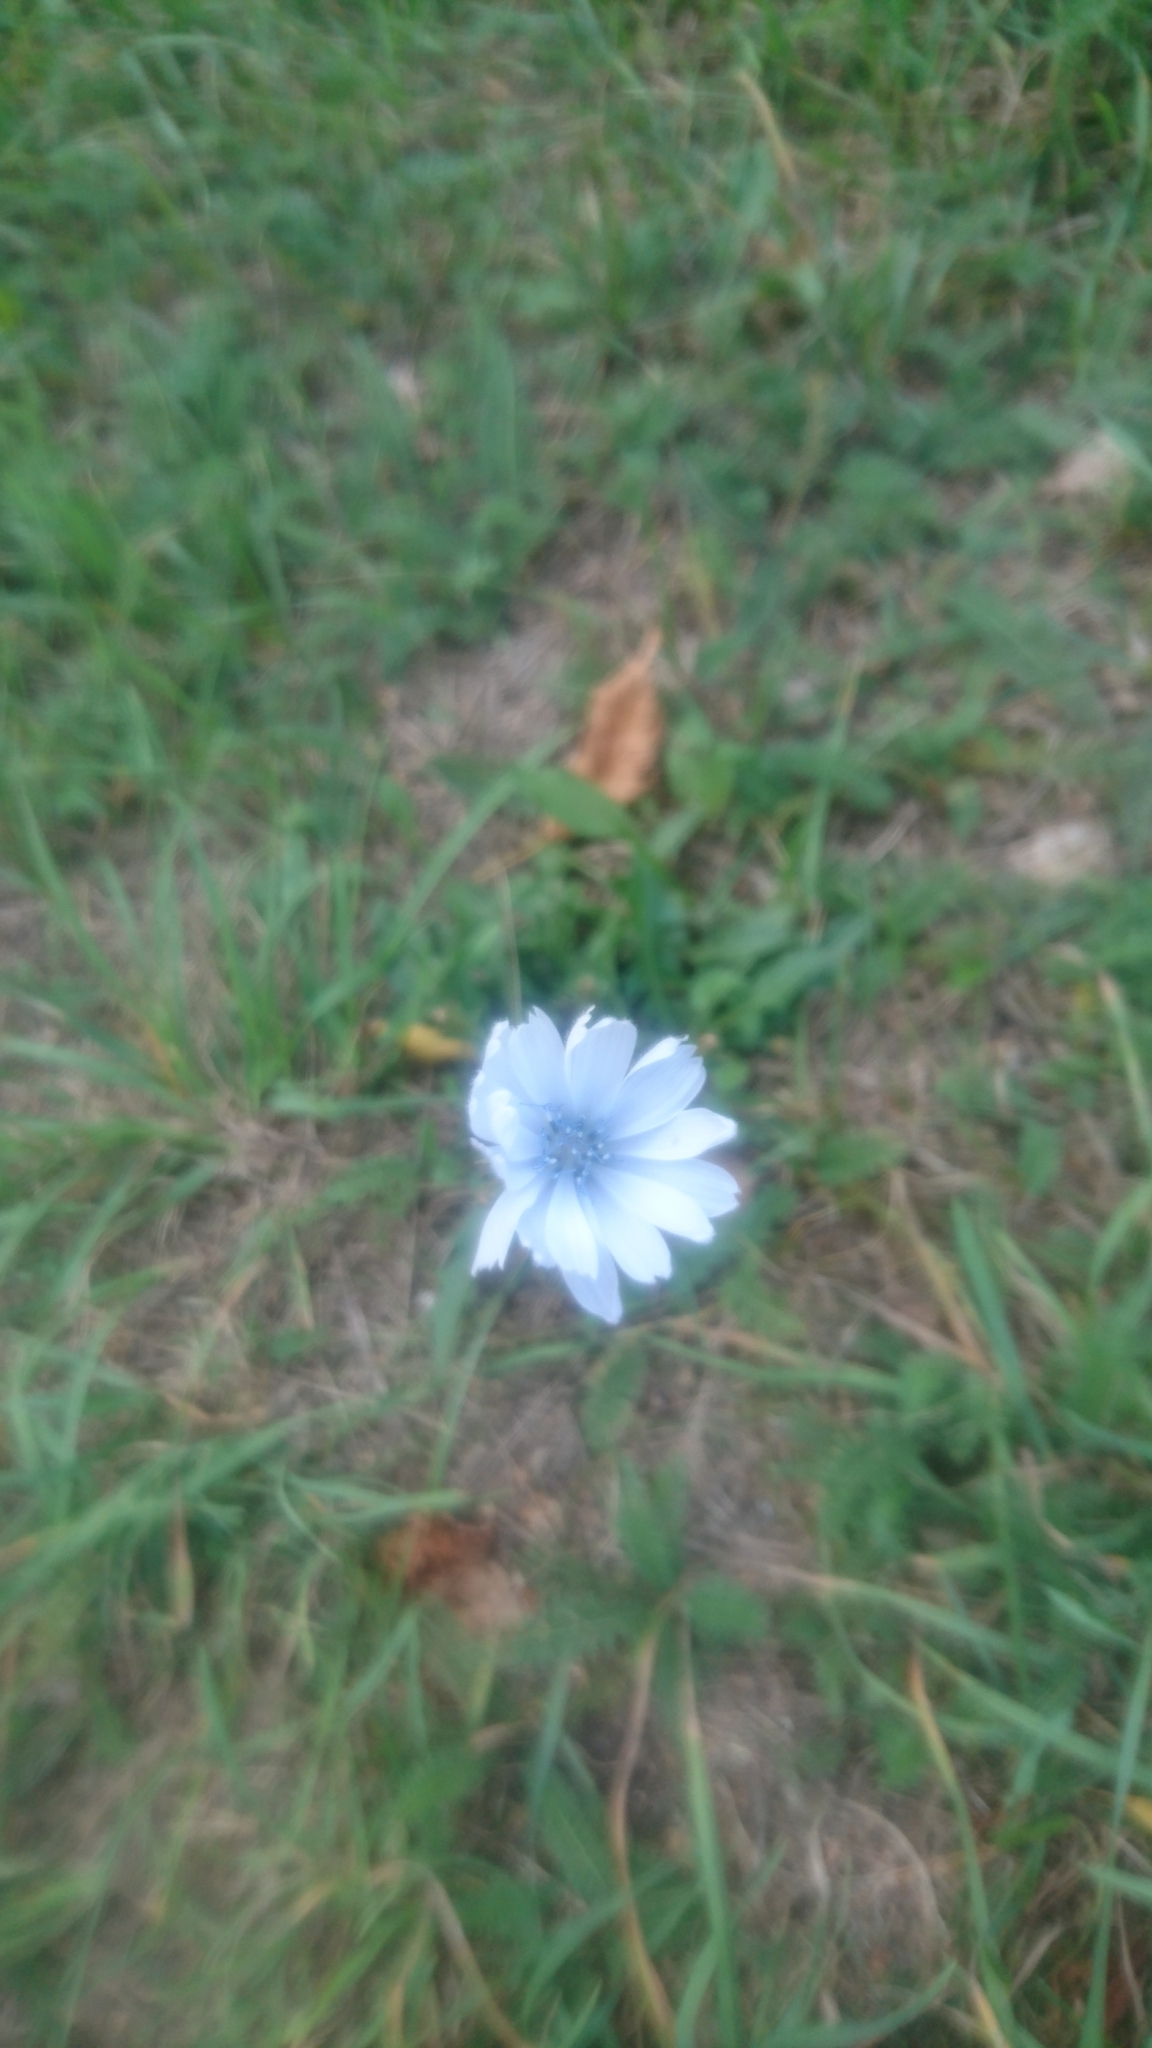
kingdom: Plantae
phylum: Tracheophyta
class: Magnoliopsida
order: Asterales
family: Asteraceae
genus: Cichorium
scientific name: Cichorium intybus
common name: Chicory
